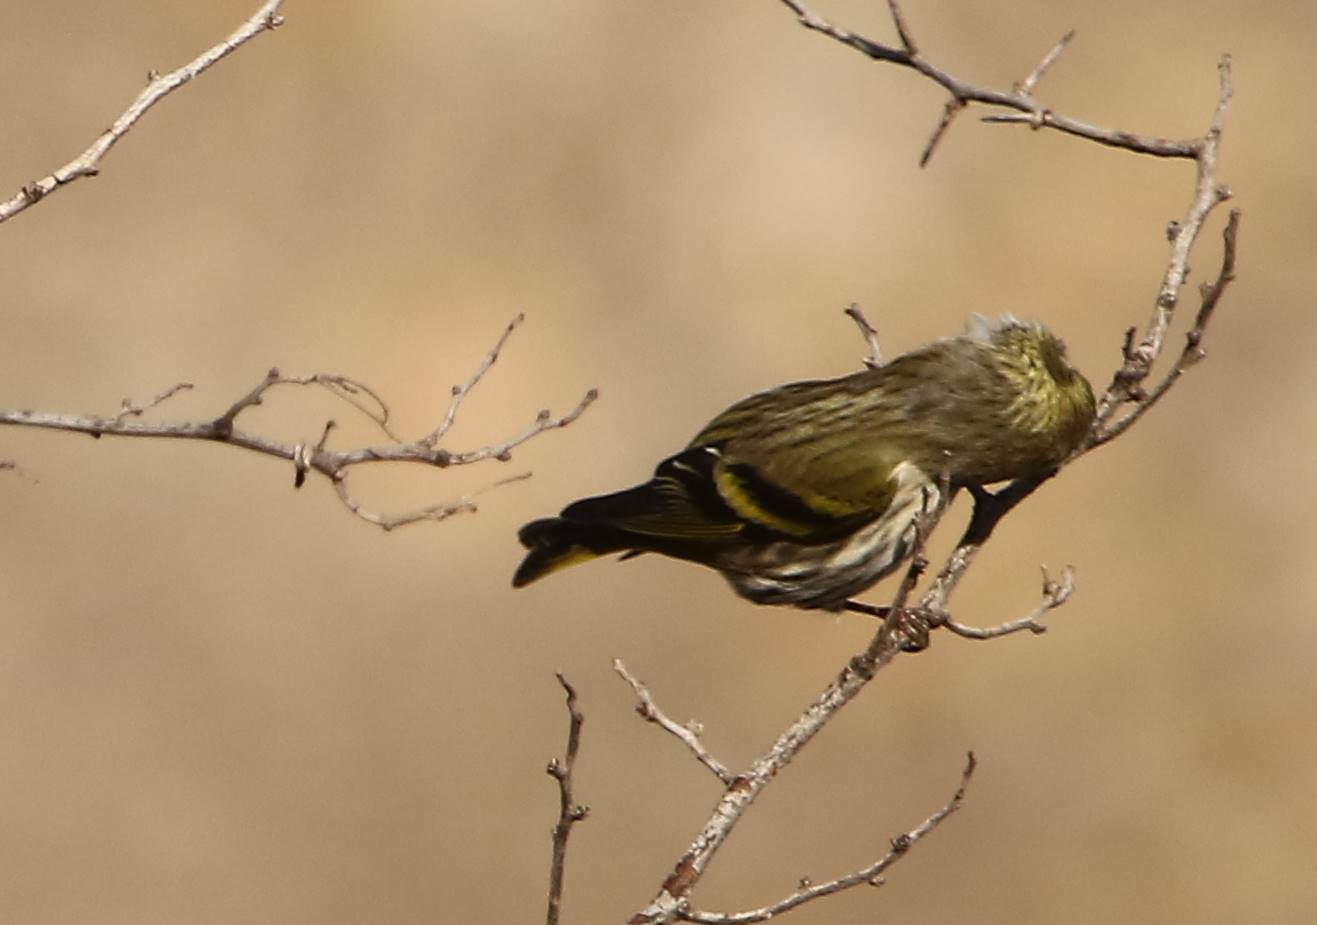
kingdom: Animalia
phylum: Chordata
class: Aves
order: Passeriformes
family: Fringillidae
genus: Spinus
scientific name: Spinus spinus
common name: Eurasian siskin
